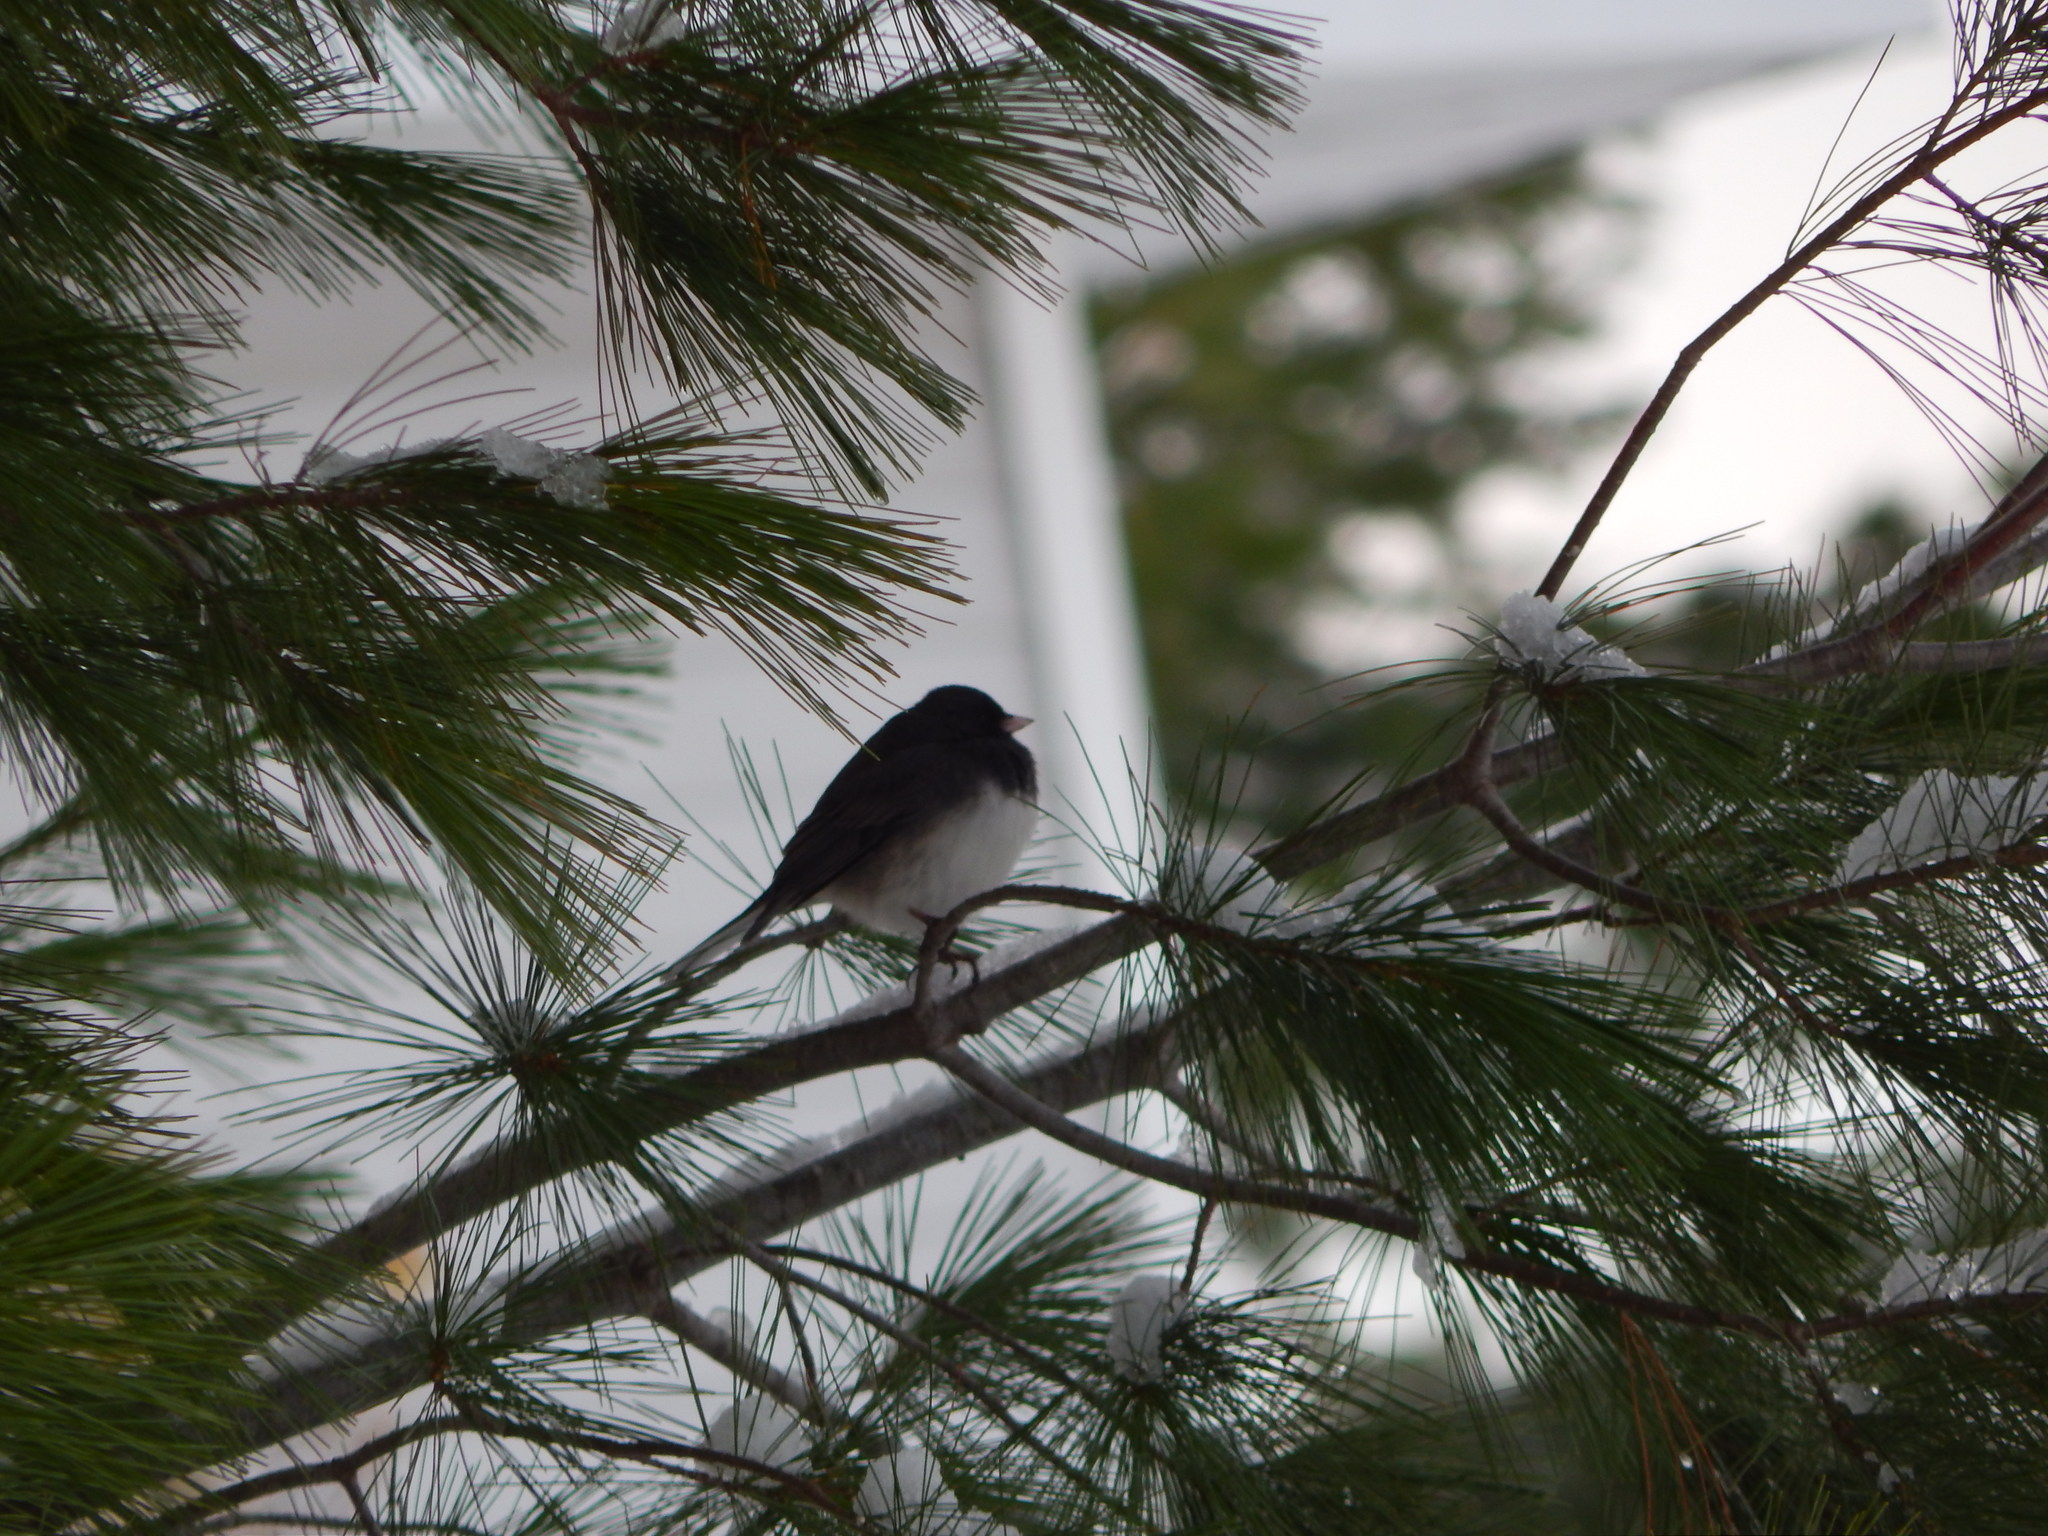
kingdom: Animalia
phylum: Chordata
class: Aves
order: Passeriformes
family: Passerellidae
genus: Junco
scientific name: Junco hyemalis
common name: Dark-eyed junco
